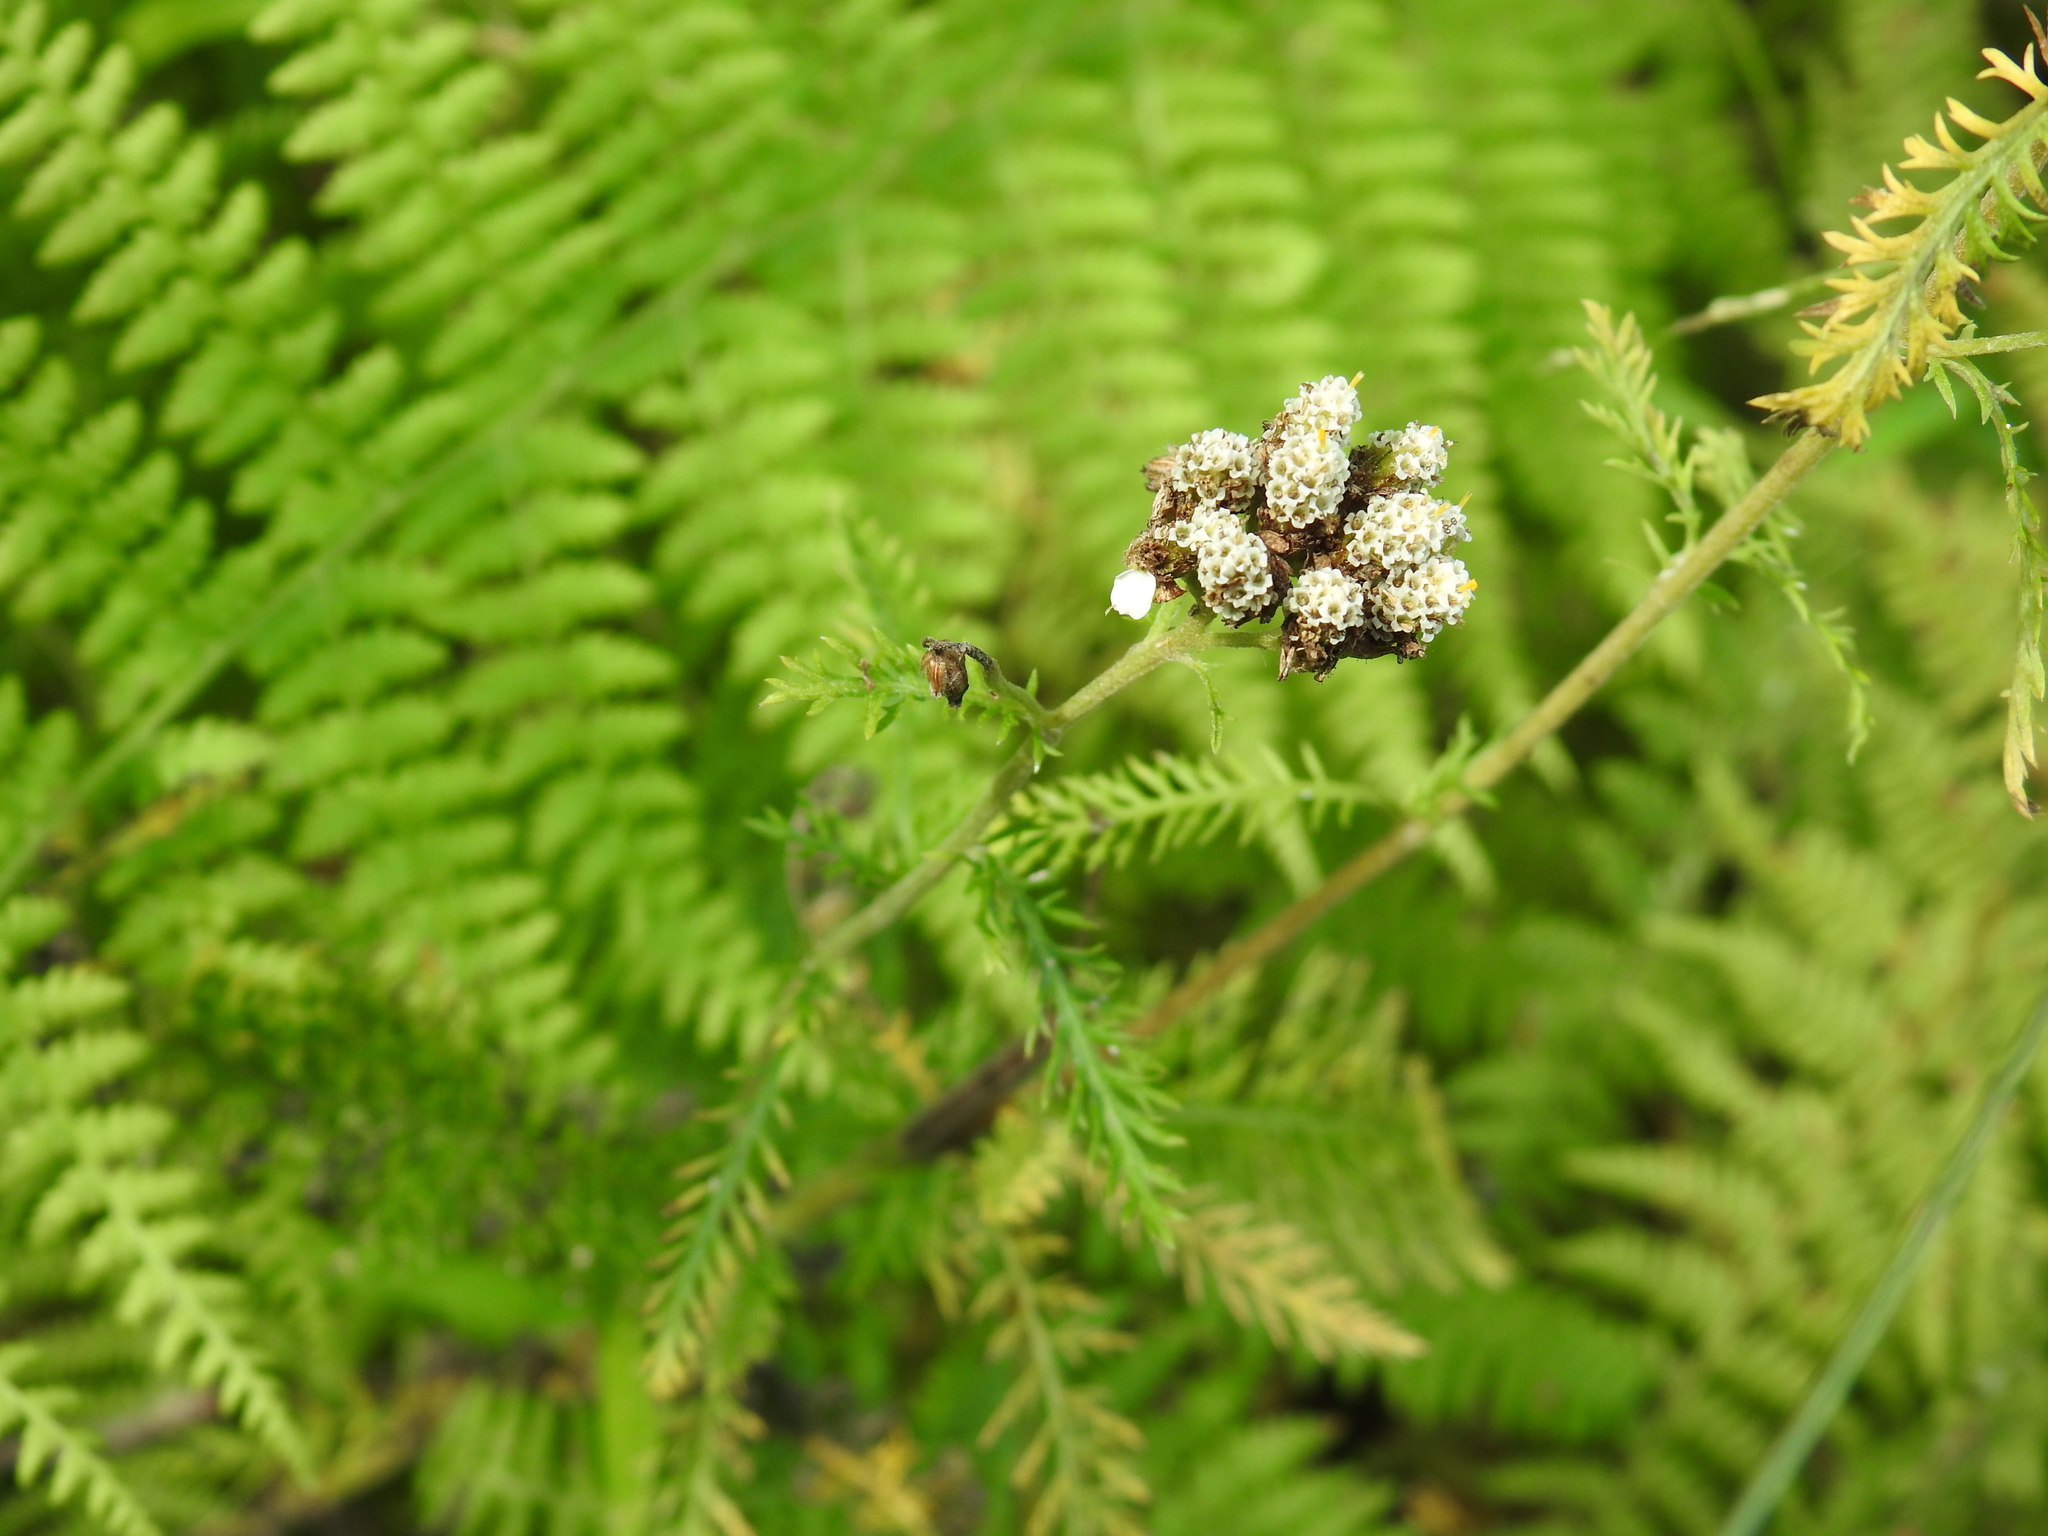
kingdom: Plantae
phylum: Tracheophyta
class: Magnoliopsida
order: Asterales
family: Asteraceae
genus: Achillea
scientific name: Achillea millefolium
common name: Yarrow
